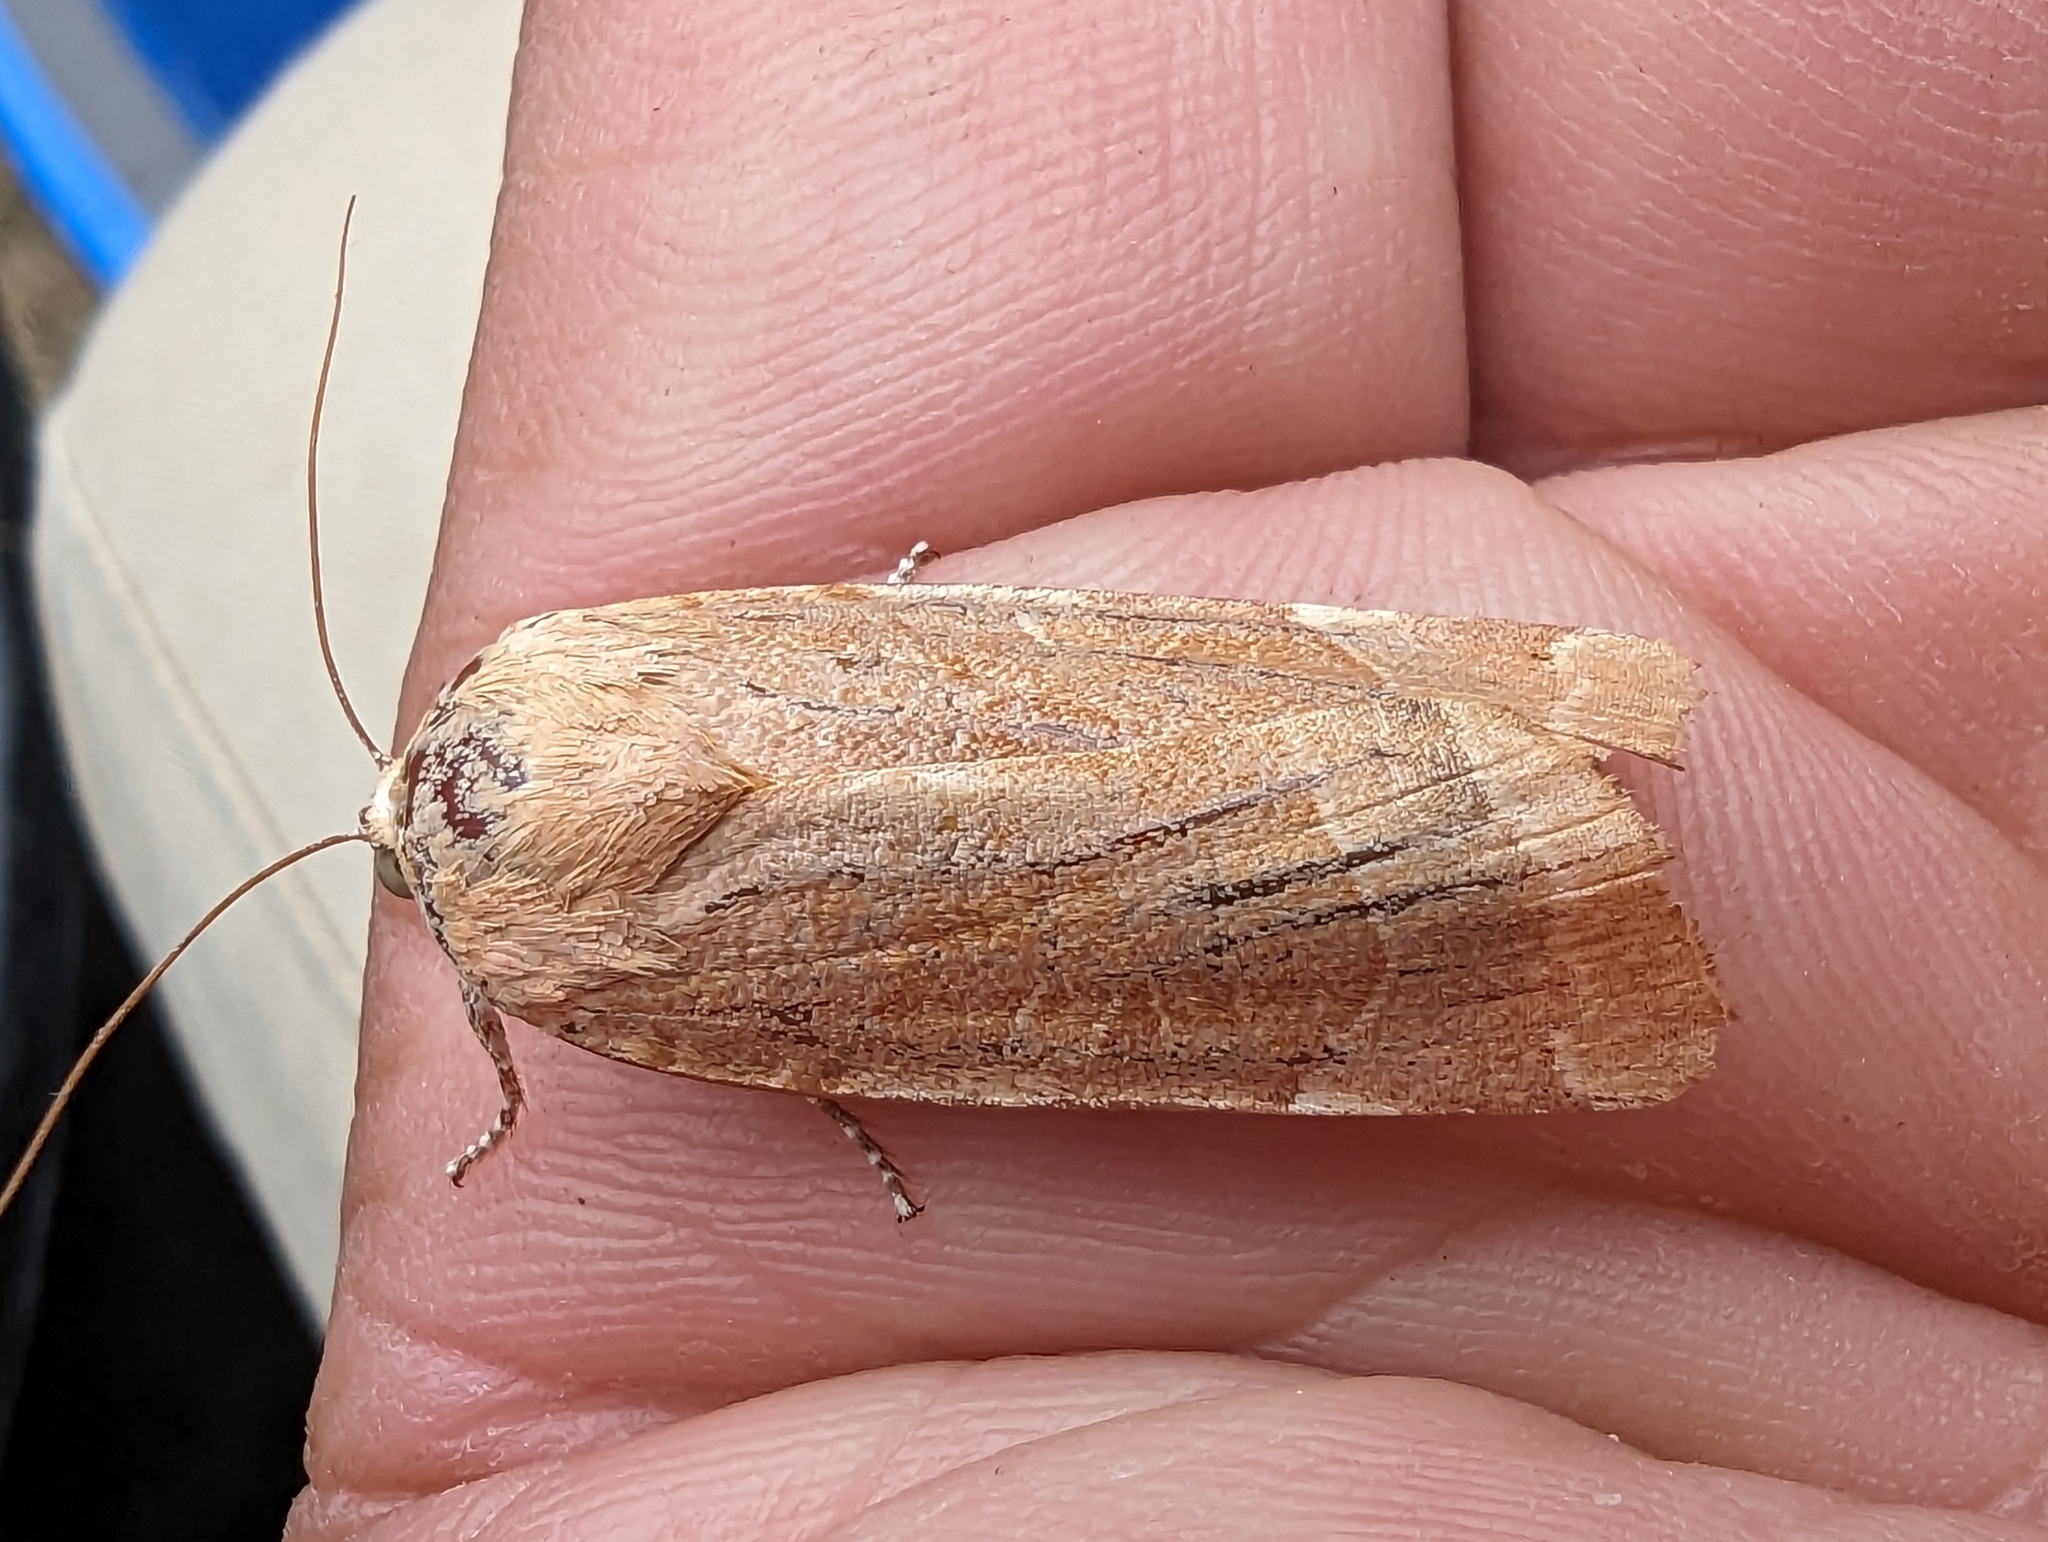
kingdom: Animalia
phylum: Arthropoda
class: Insecta
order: Lepidoptera
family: Noctuidae
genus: Noctua
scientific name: Noctua fimbriata
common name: Broad-bordered yellow underwing
